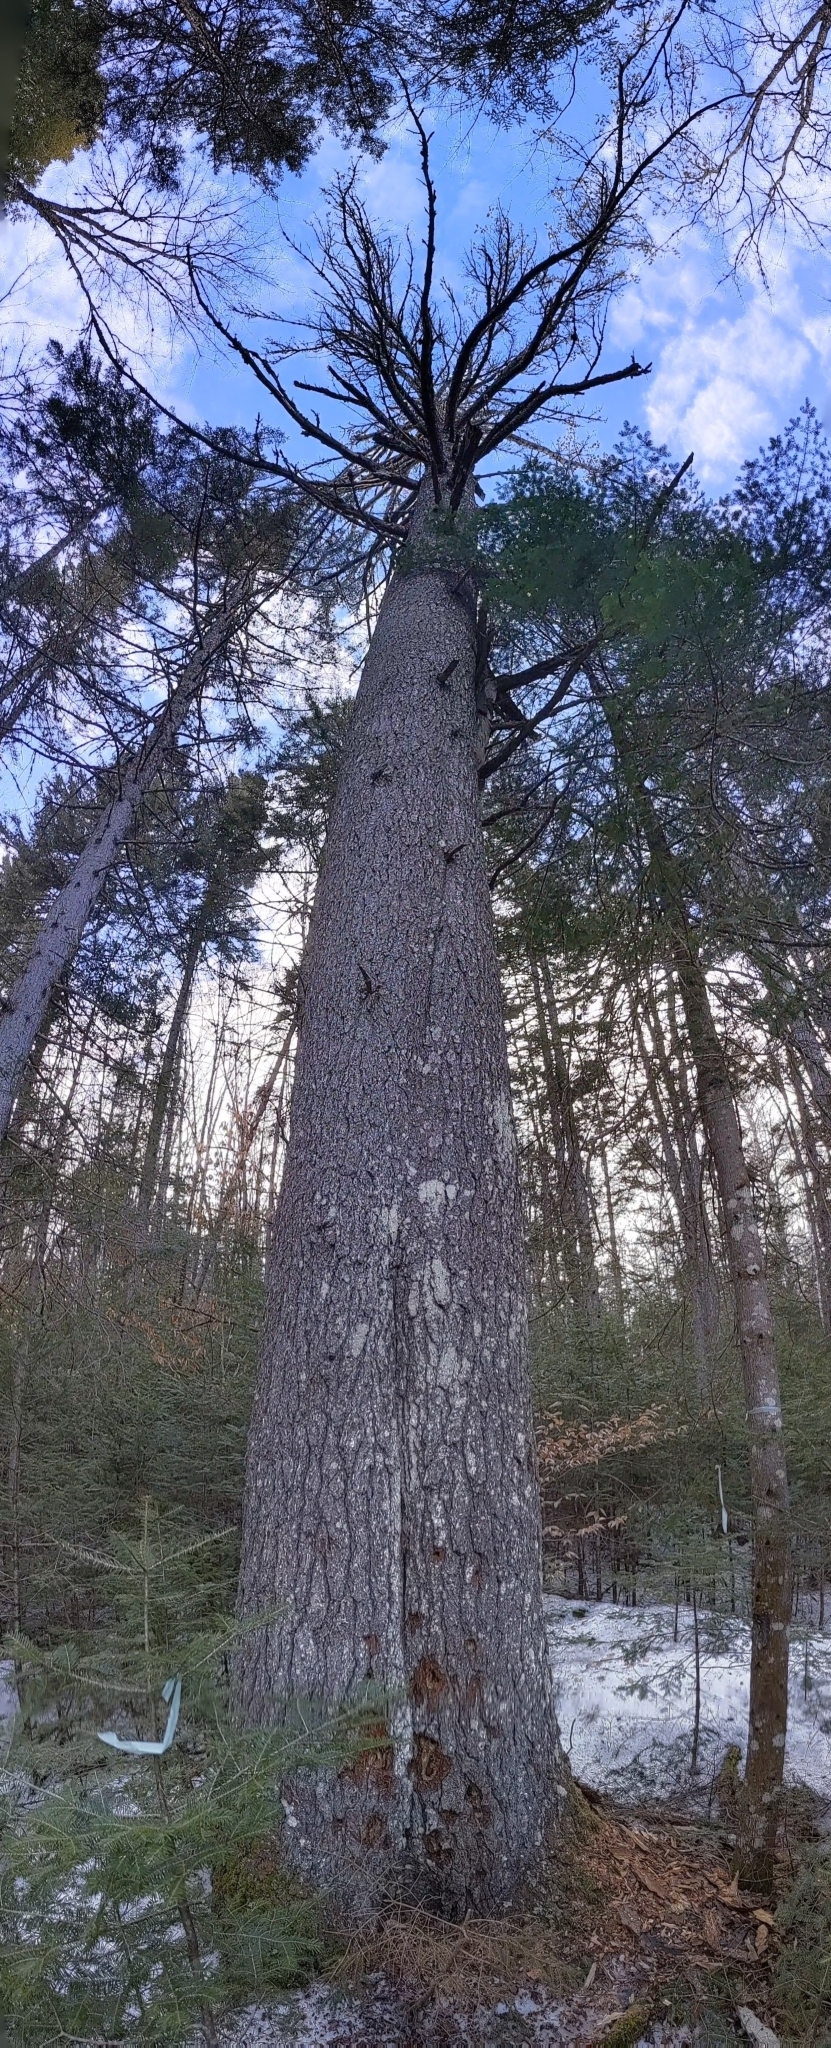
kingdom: Plantae
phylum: Tracheophyta
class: Pinopsida
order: Pinales
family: Pinaceae
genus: Pinus
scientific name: Pinus strobus
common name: Weymouth pine
